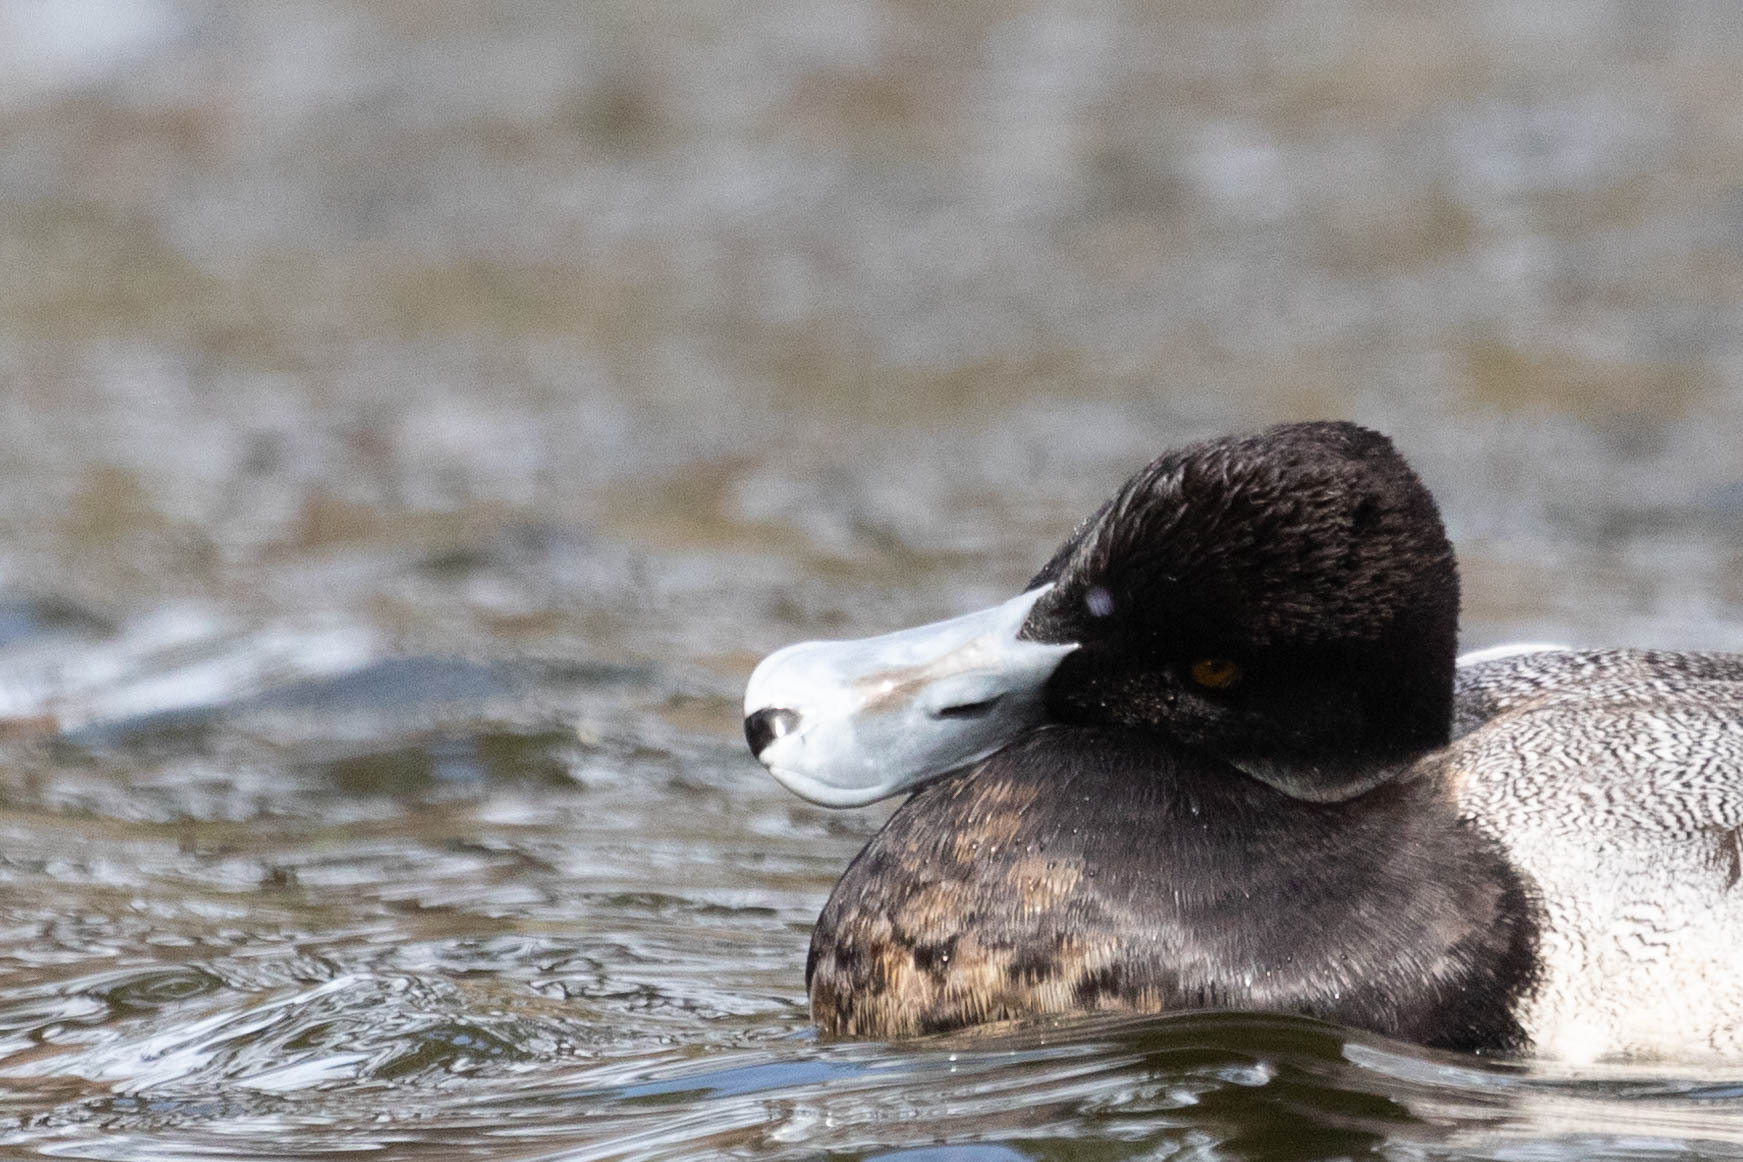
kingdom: Animalia
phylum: Chordata
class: Aves
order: Anseriformes
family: Anatidae
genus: Aythya
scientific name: Aythya affinis
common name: Lesser scaup
